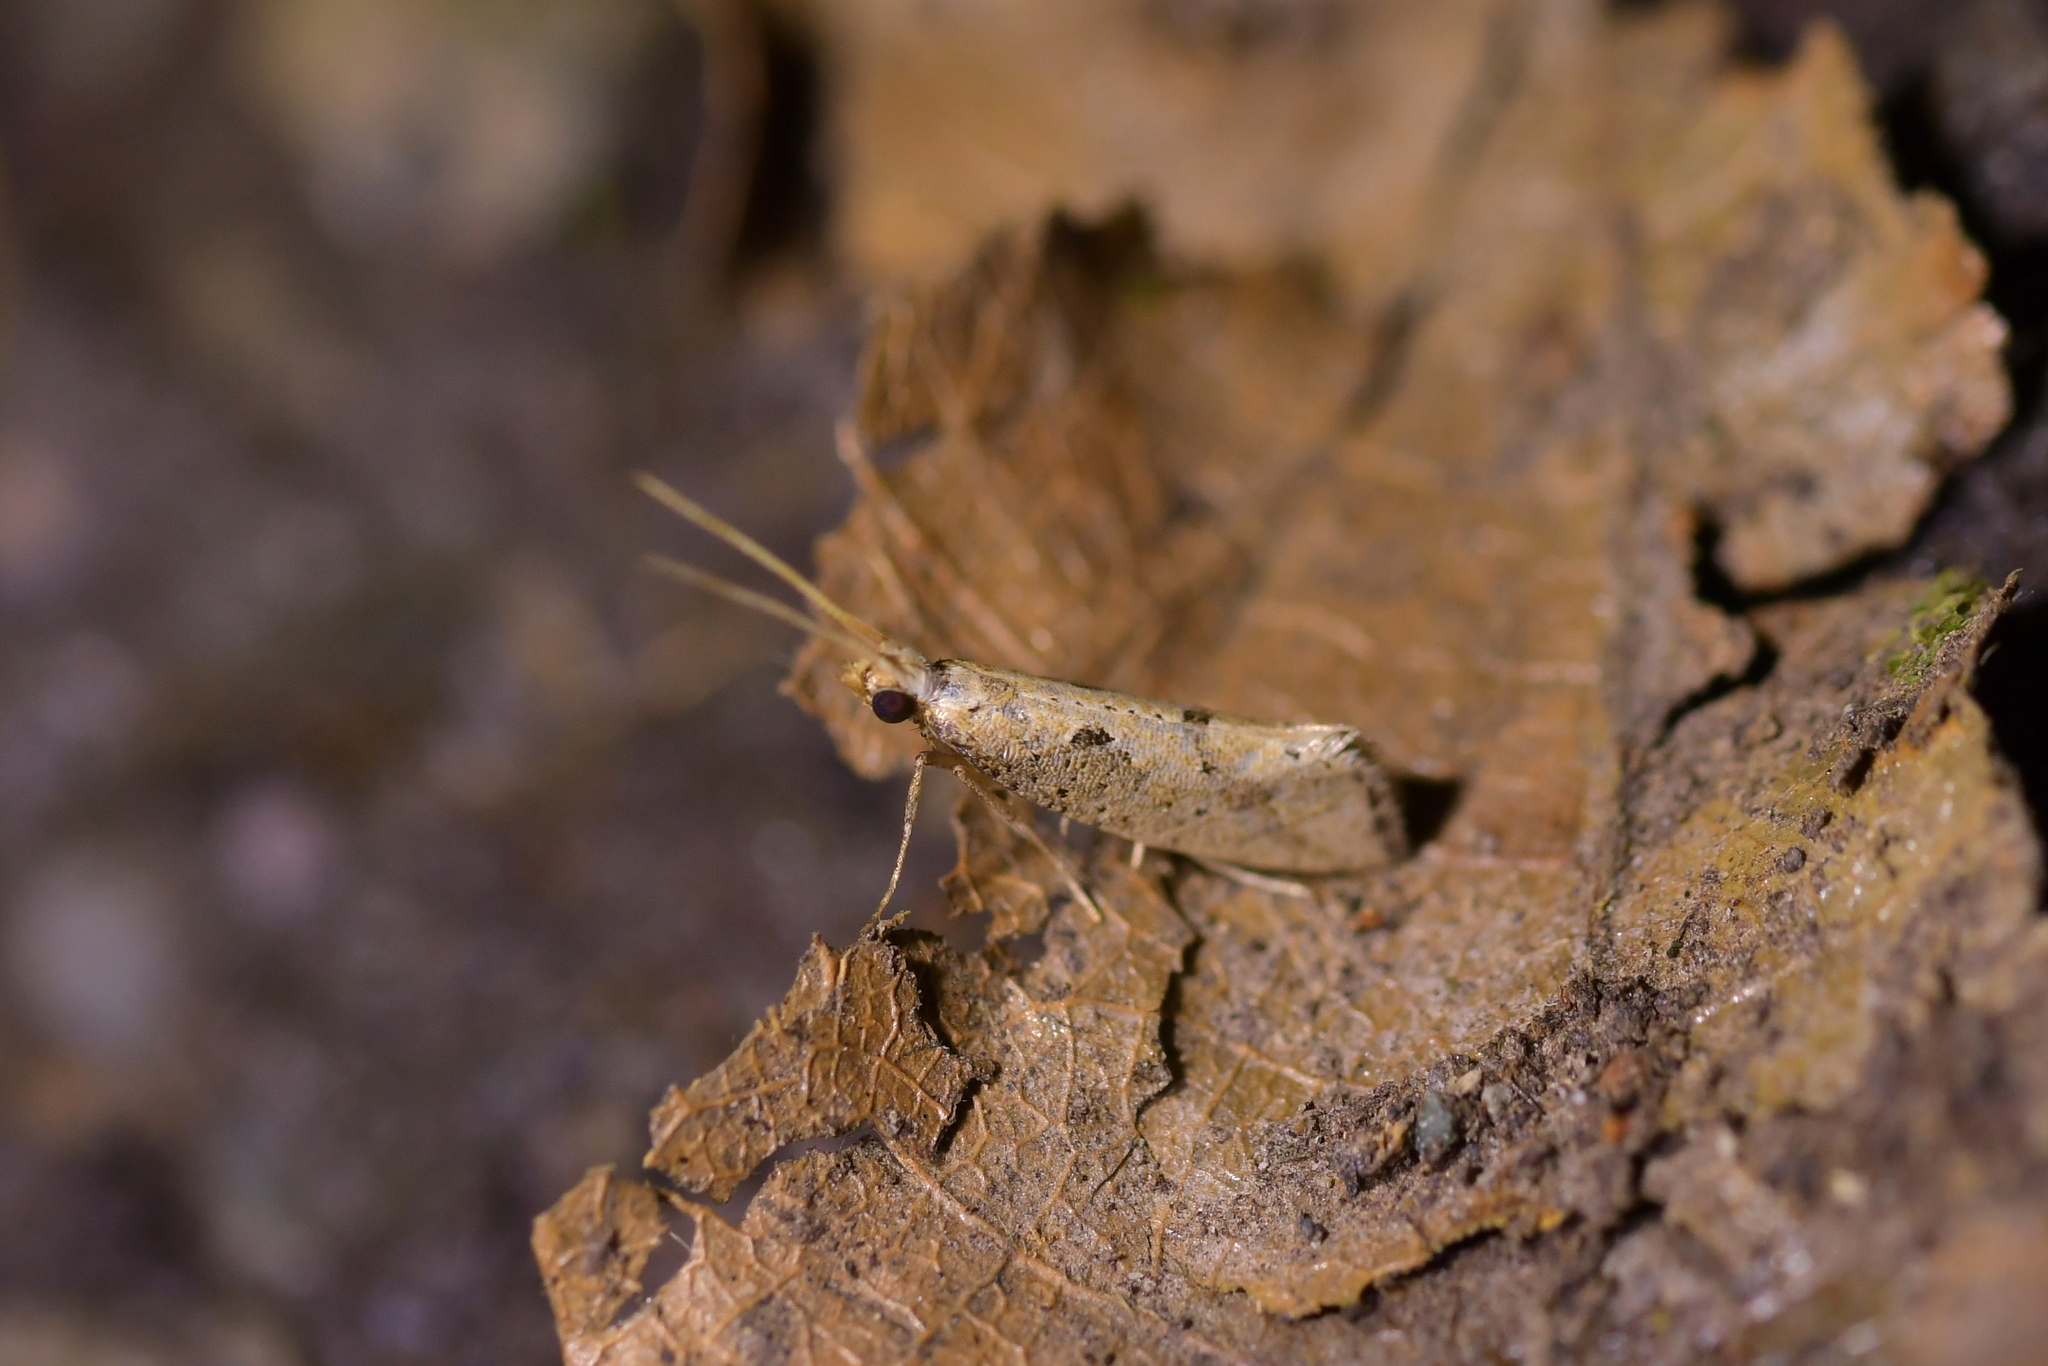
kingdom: Animalia
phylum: Arthropoda
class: Insecta
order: Lepidoptera
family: Plutellidae
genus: Leuroperna
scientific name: Leuroperna sera
